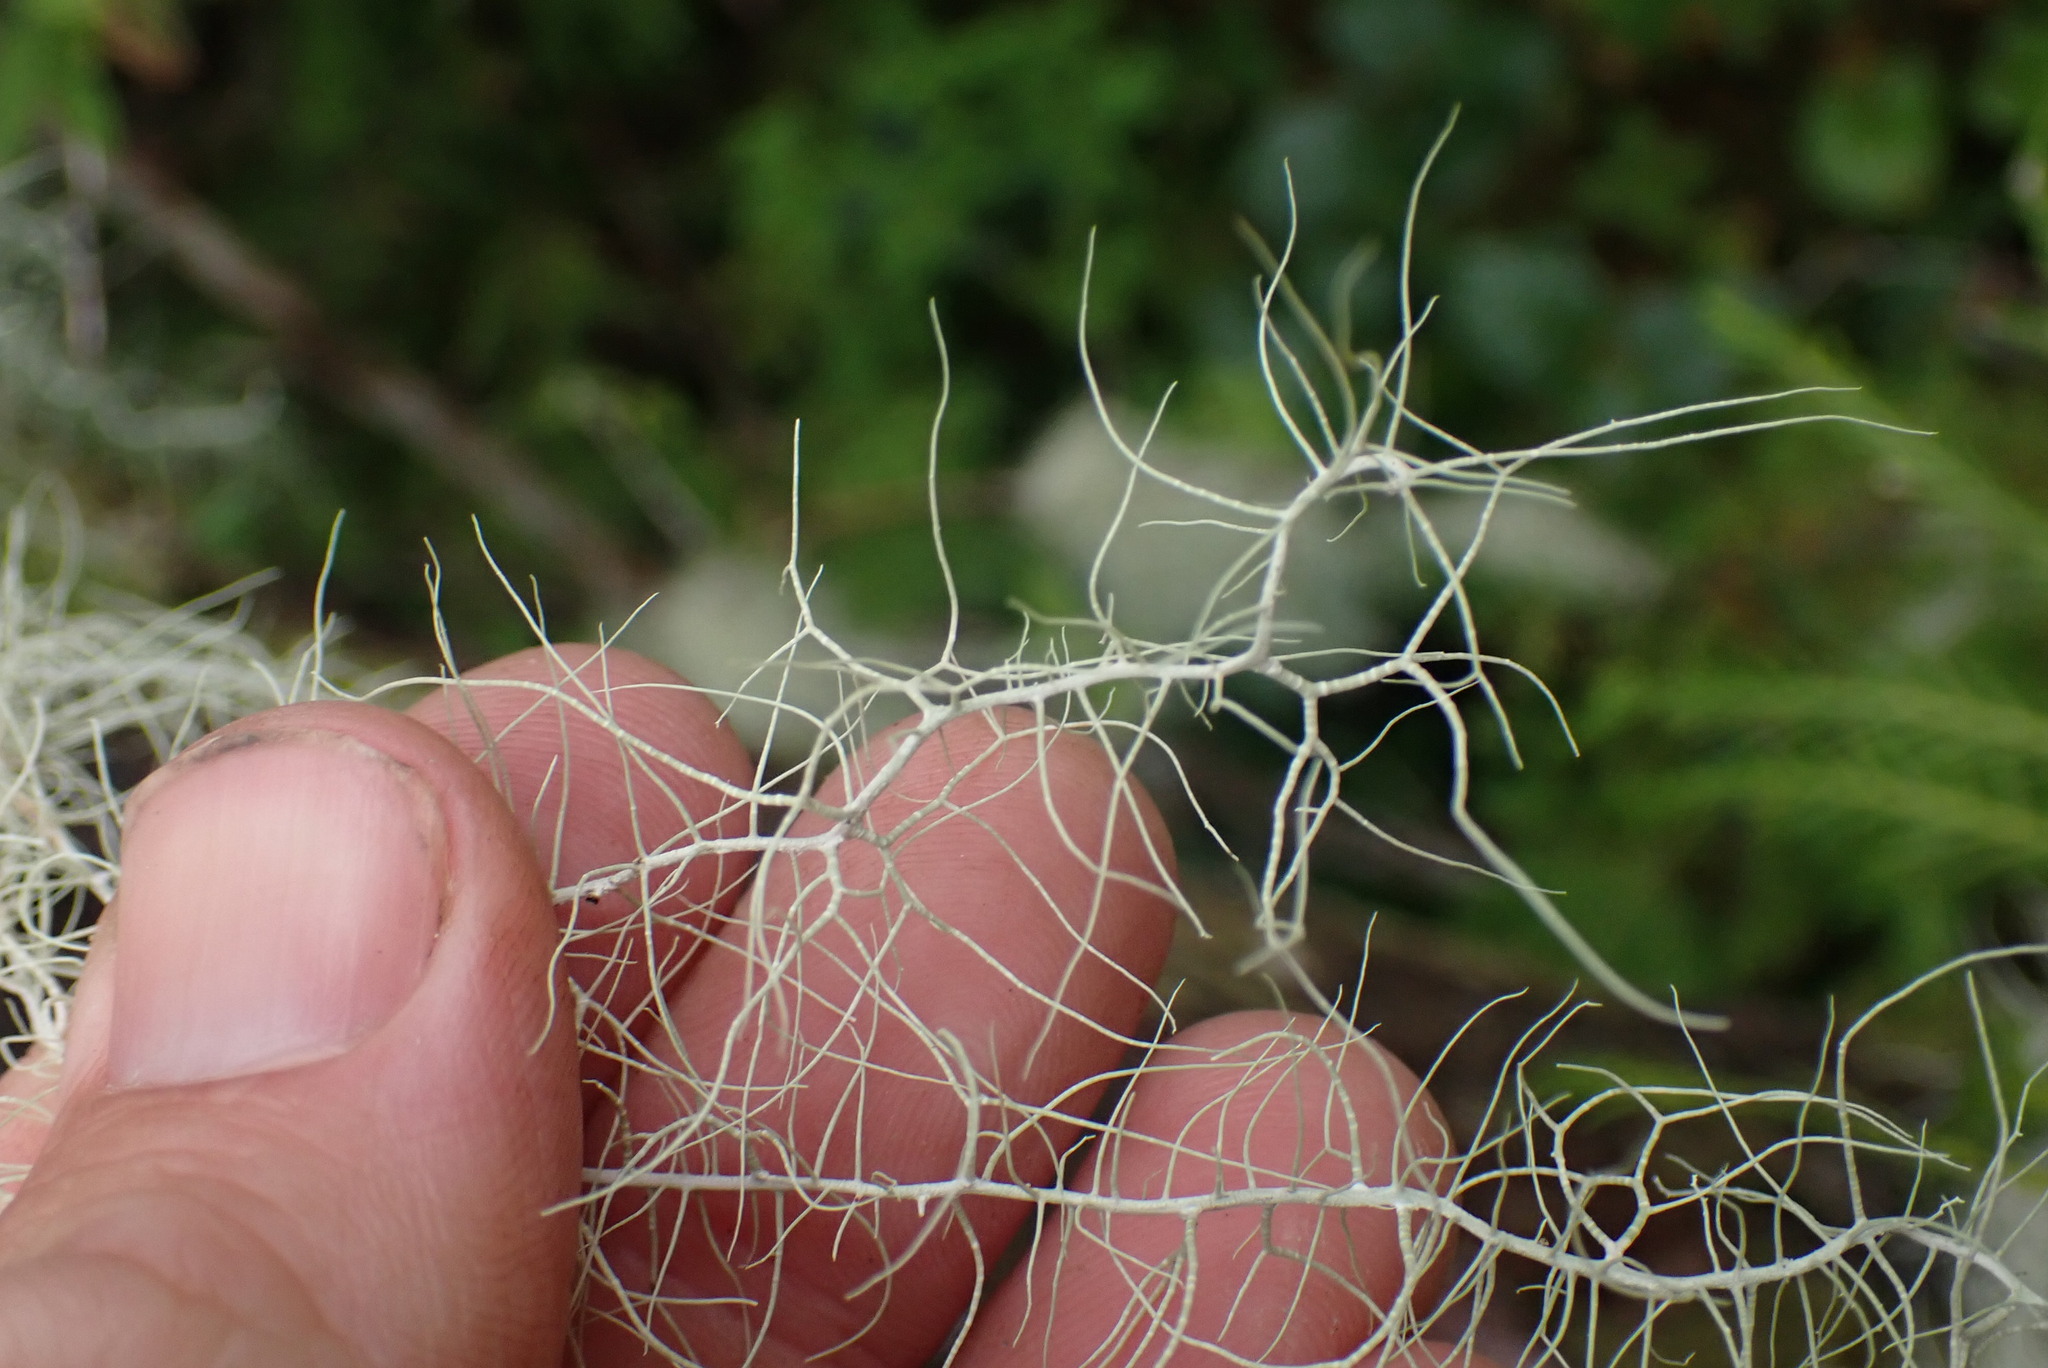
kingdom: Fungi
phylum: Ascomycota
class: Lecanoromycetes
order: Lecanorales
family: Parmeliaceae
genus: Dolichousnea
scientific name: Dolichousnea longissima
